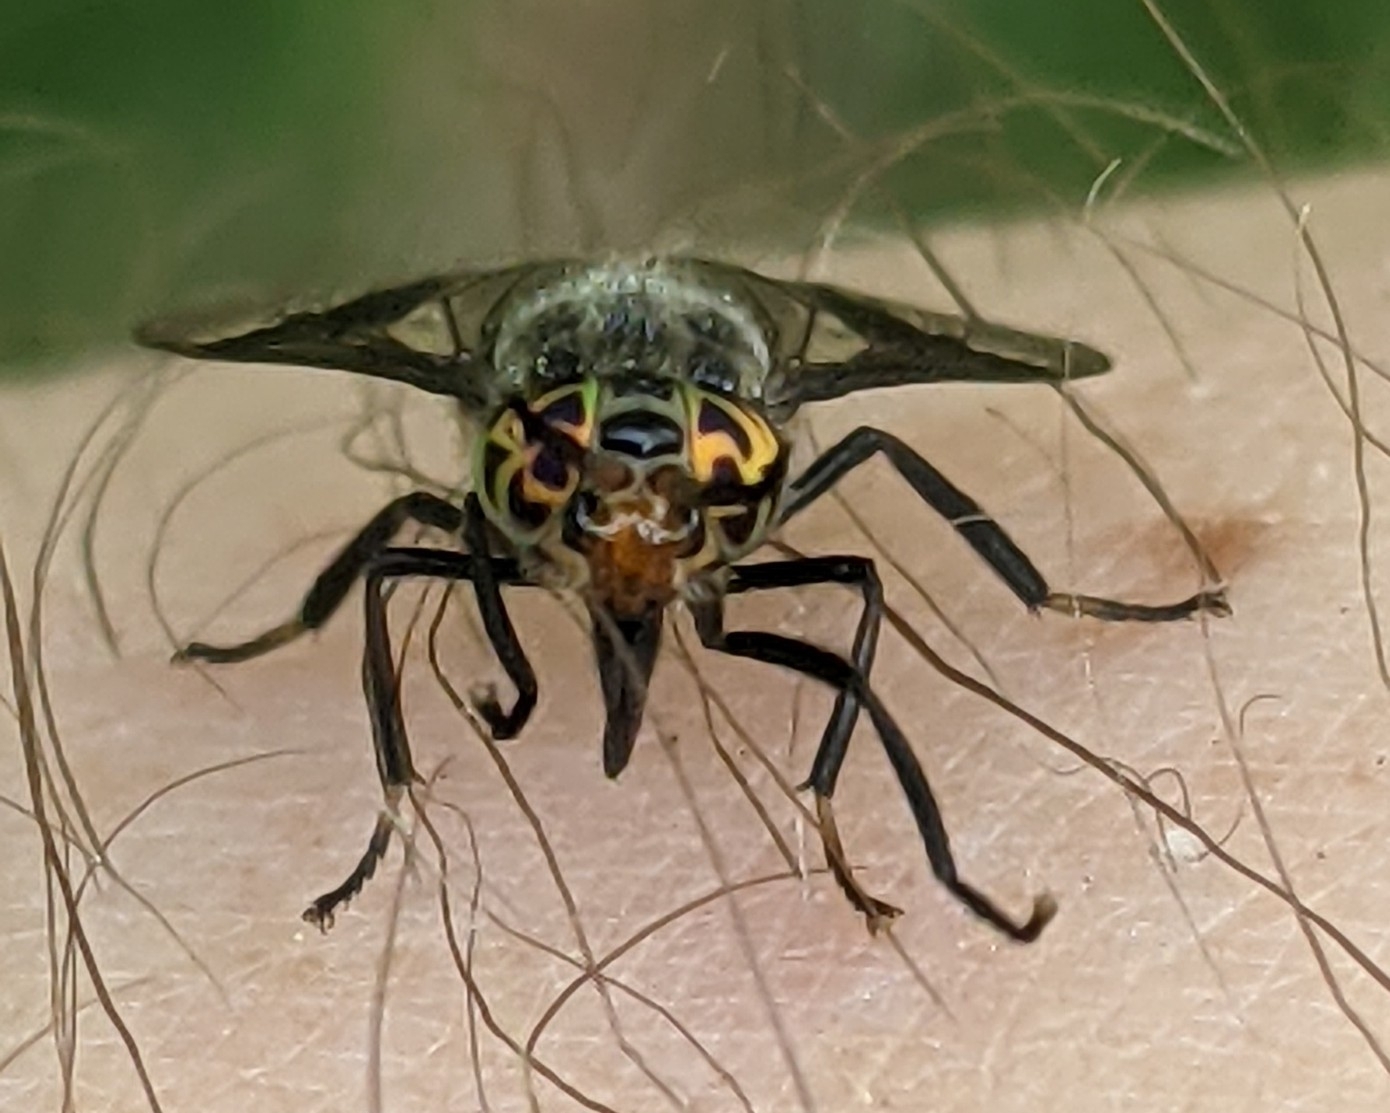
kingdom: Animalia
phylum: Arthropoda
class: Insecta
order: Diptera
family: Tabanidae
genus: Chrysops
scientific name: Chrysops niger
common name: Black deer fly
